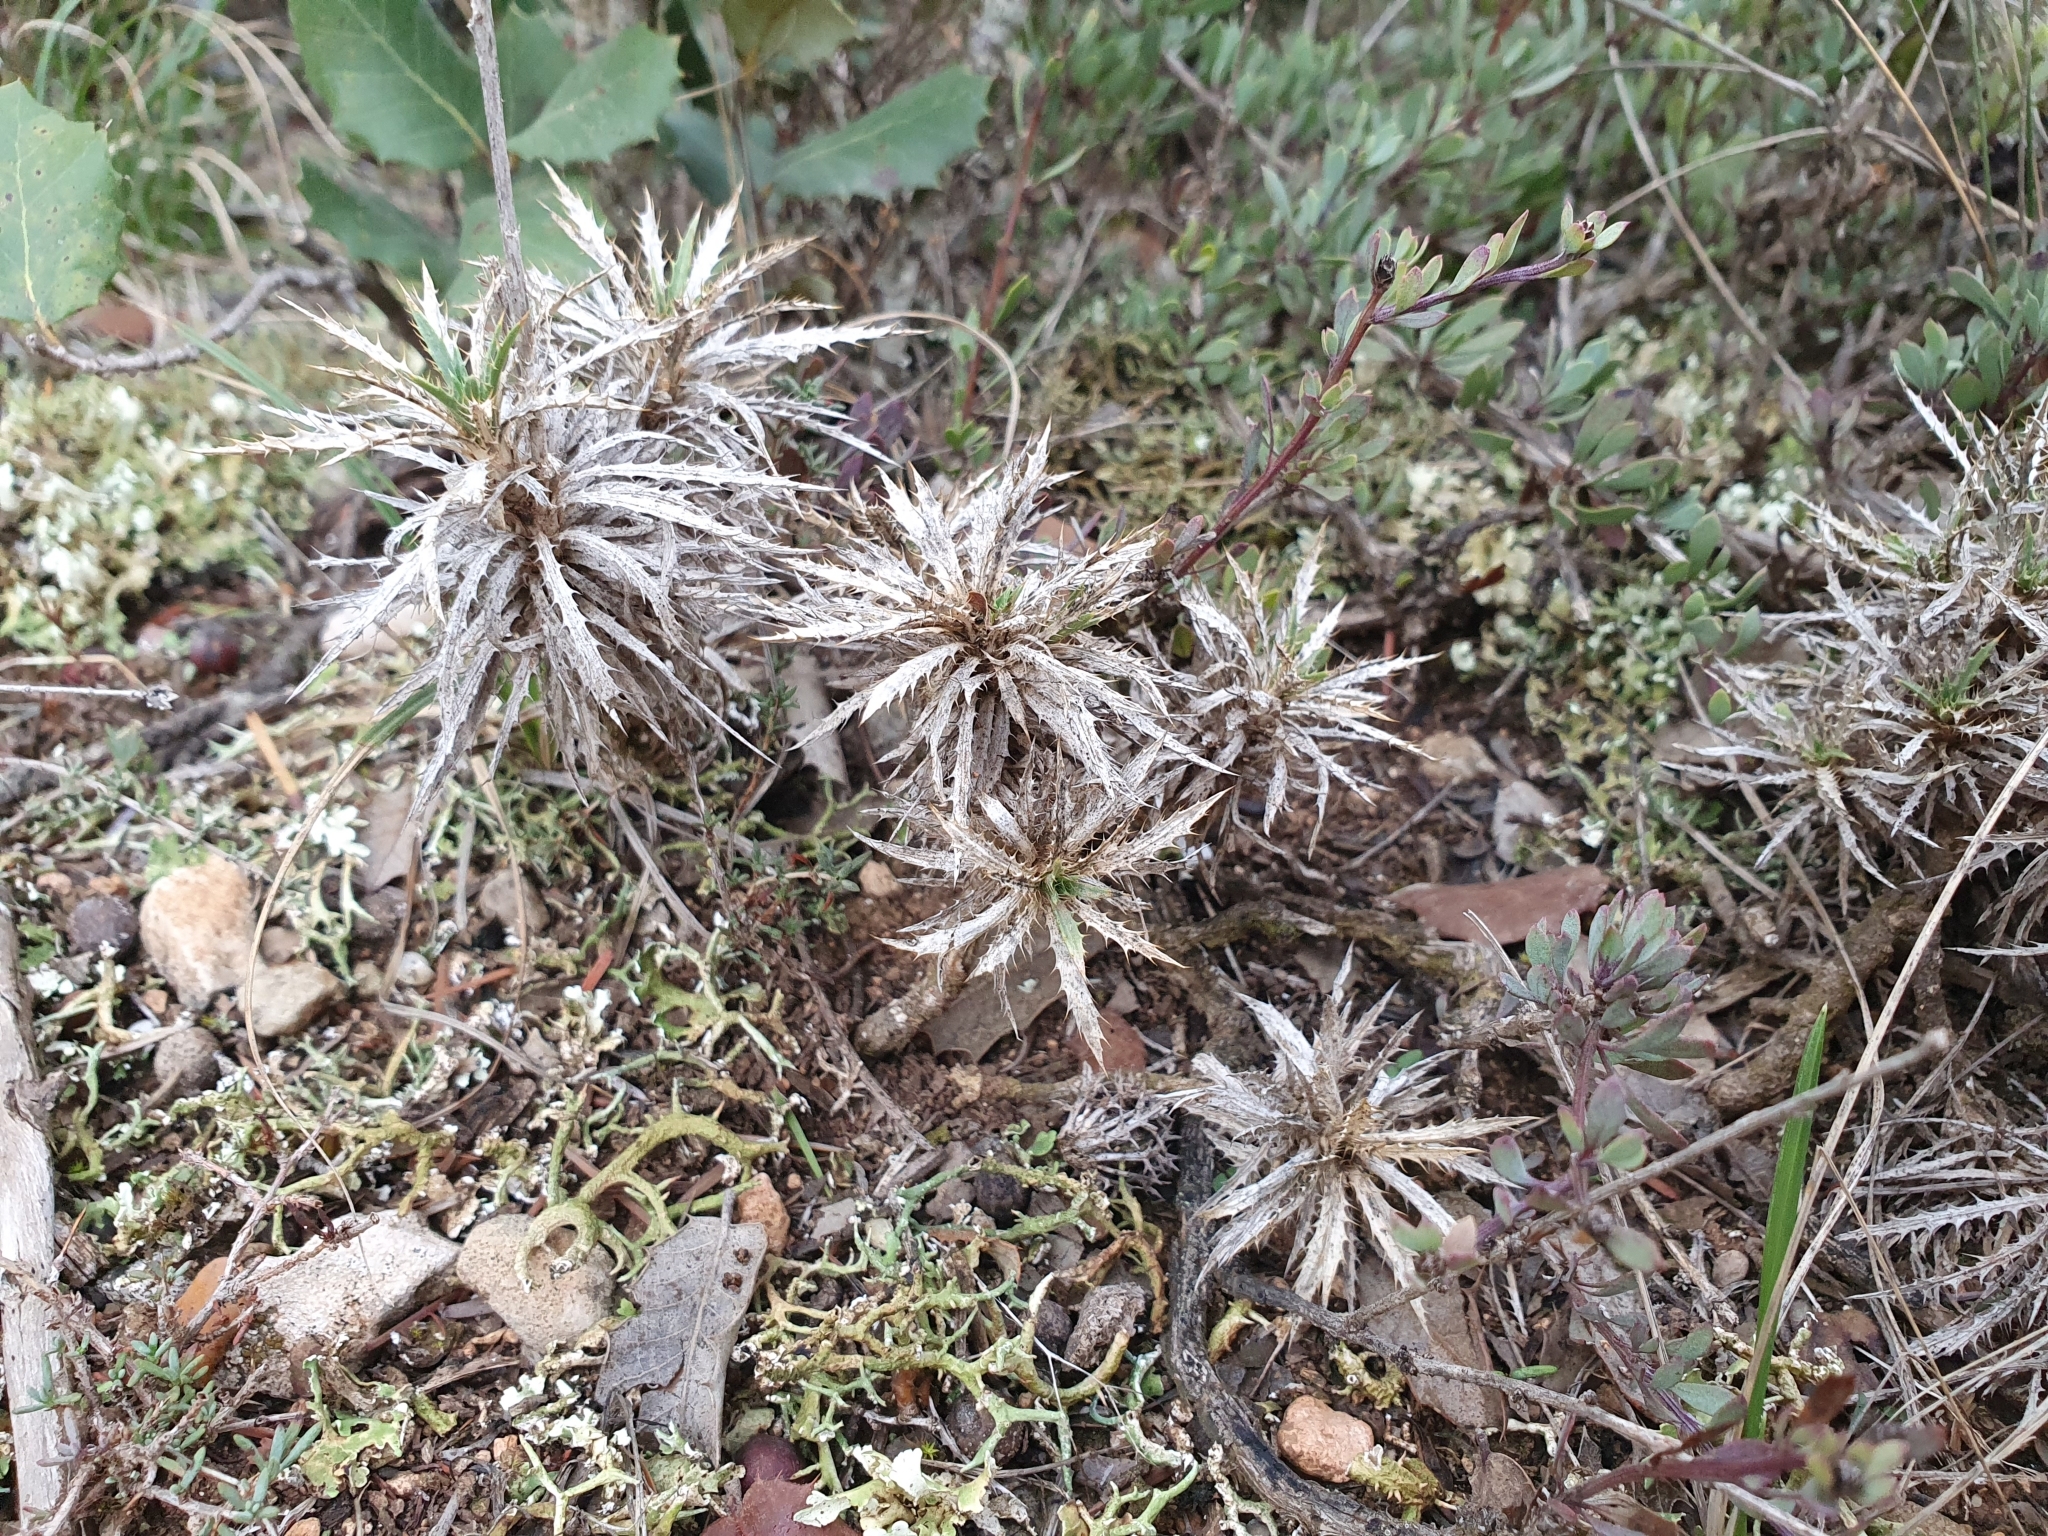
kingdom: Plantae
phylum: Tracheophyta
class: Magnoliopsida
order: Asterales
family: Asteraceae
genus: Atractylis
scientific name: Atractylis caespitosa
